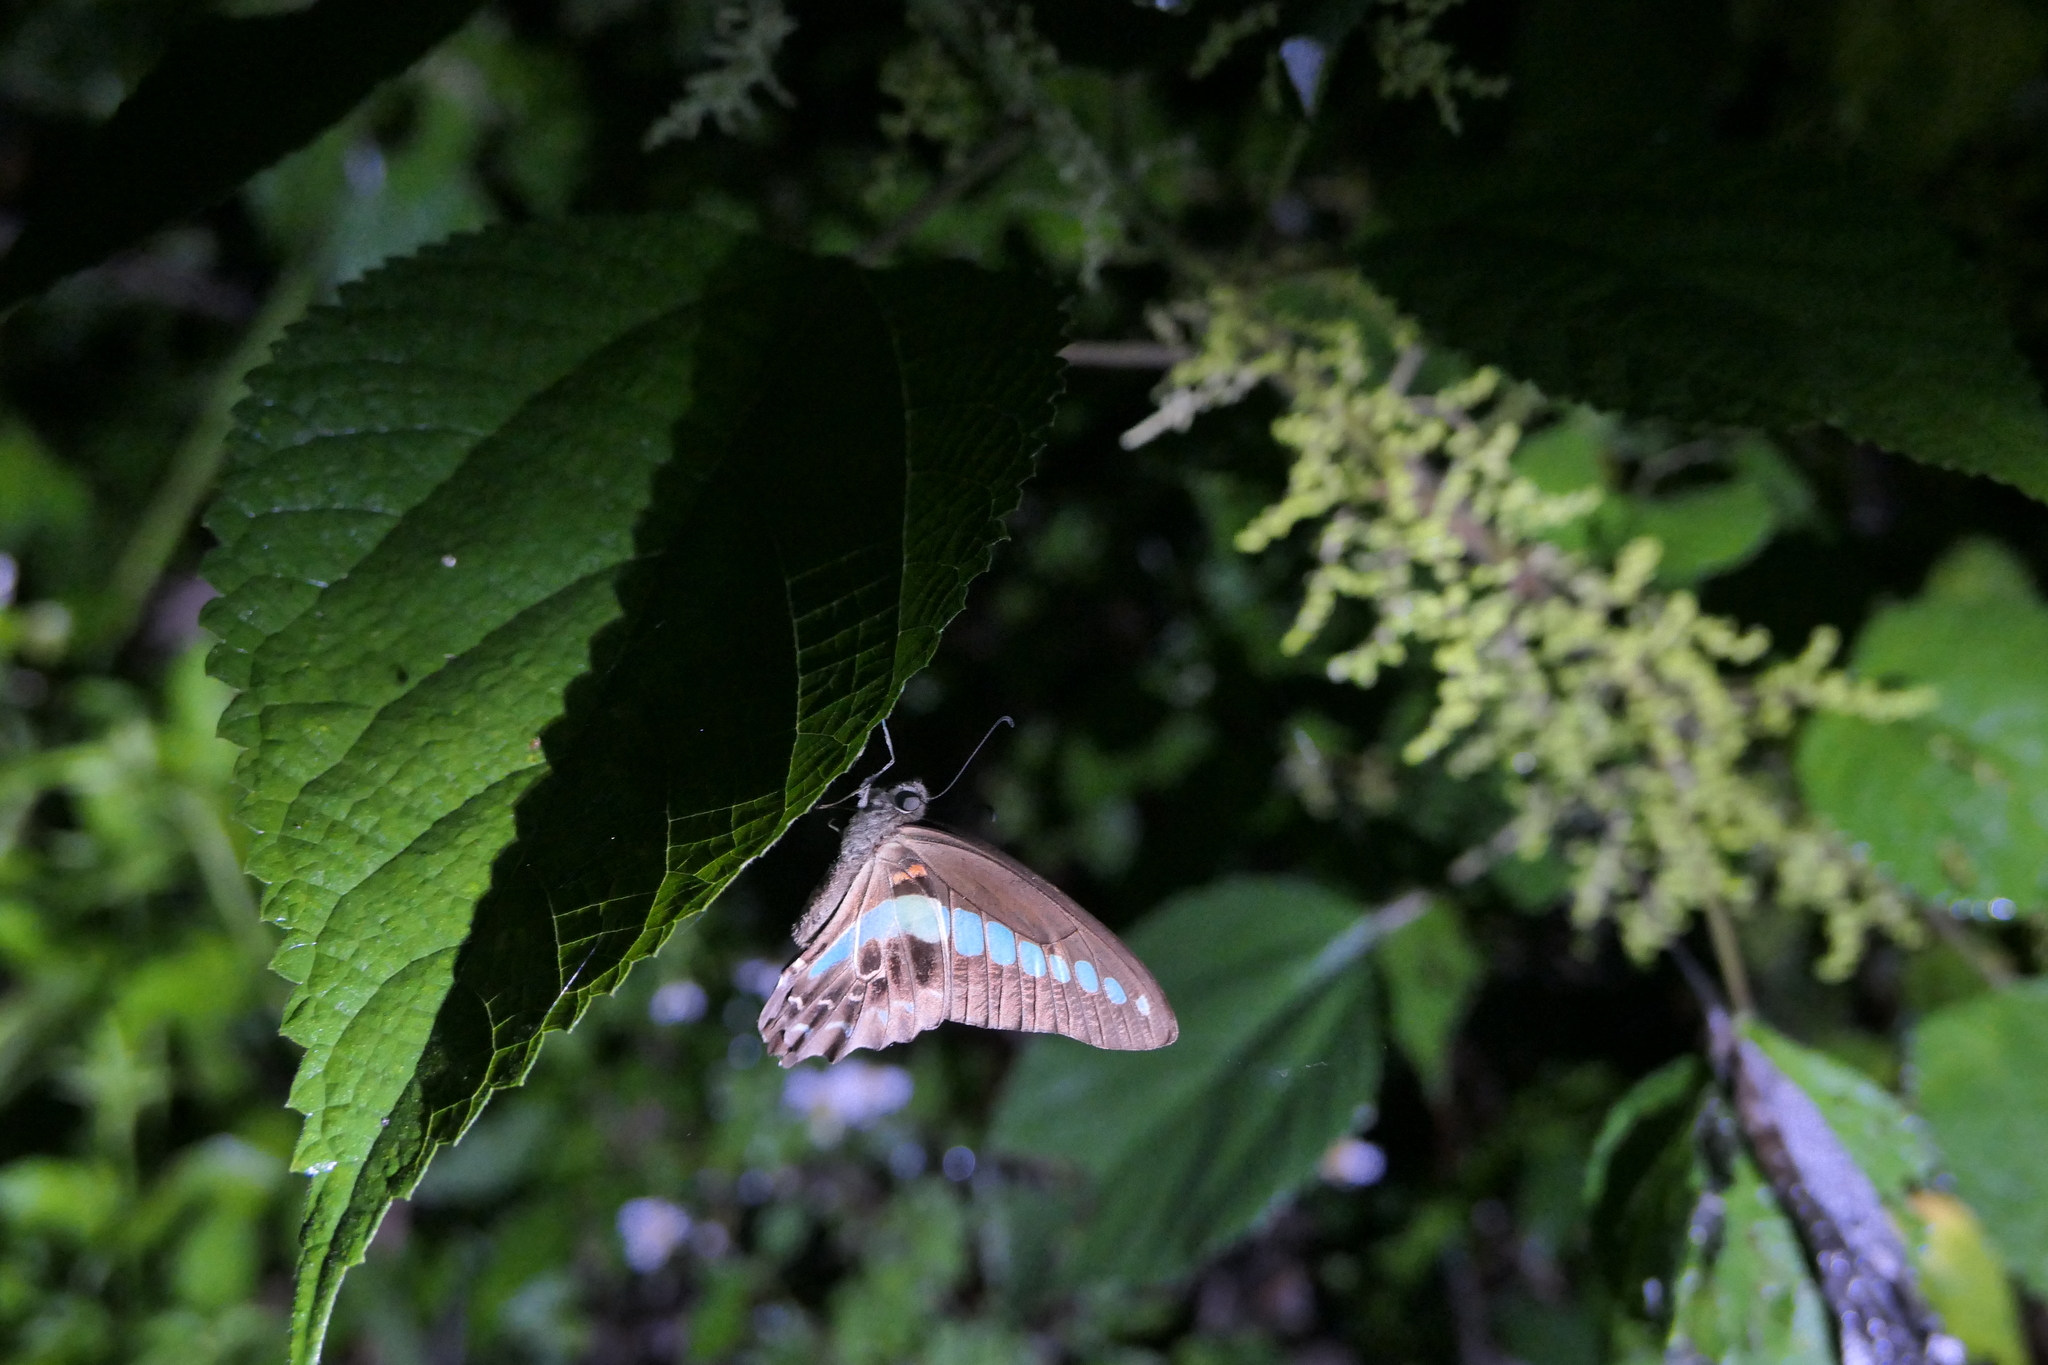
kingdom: Animalia
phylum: Chordata
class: Amphibia
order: Anura
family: Ranidae
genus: Hylarana
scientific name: Hylarana latouchii
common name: Broad-folded frog
